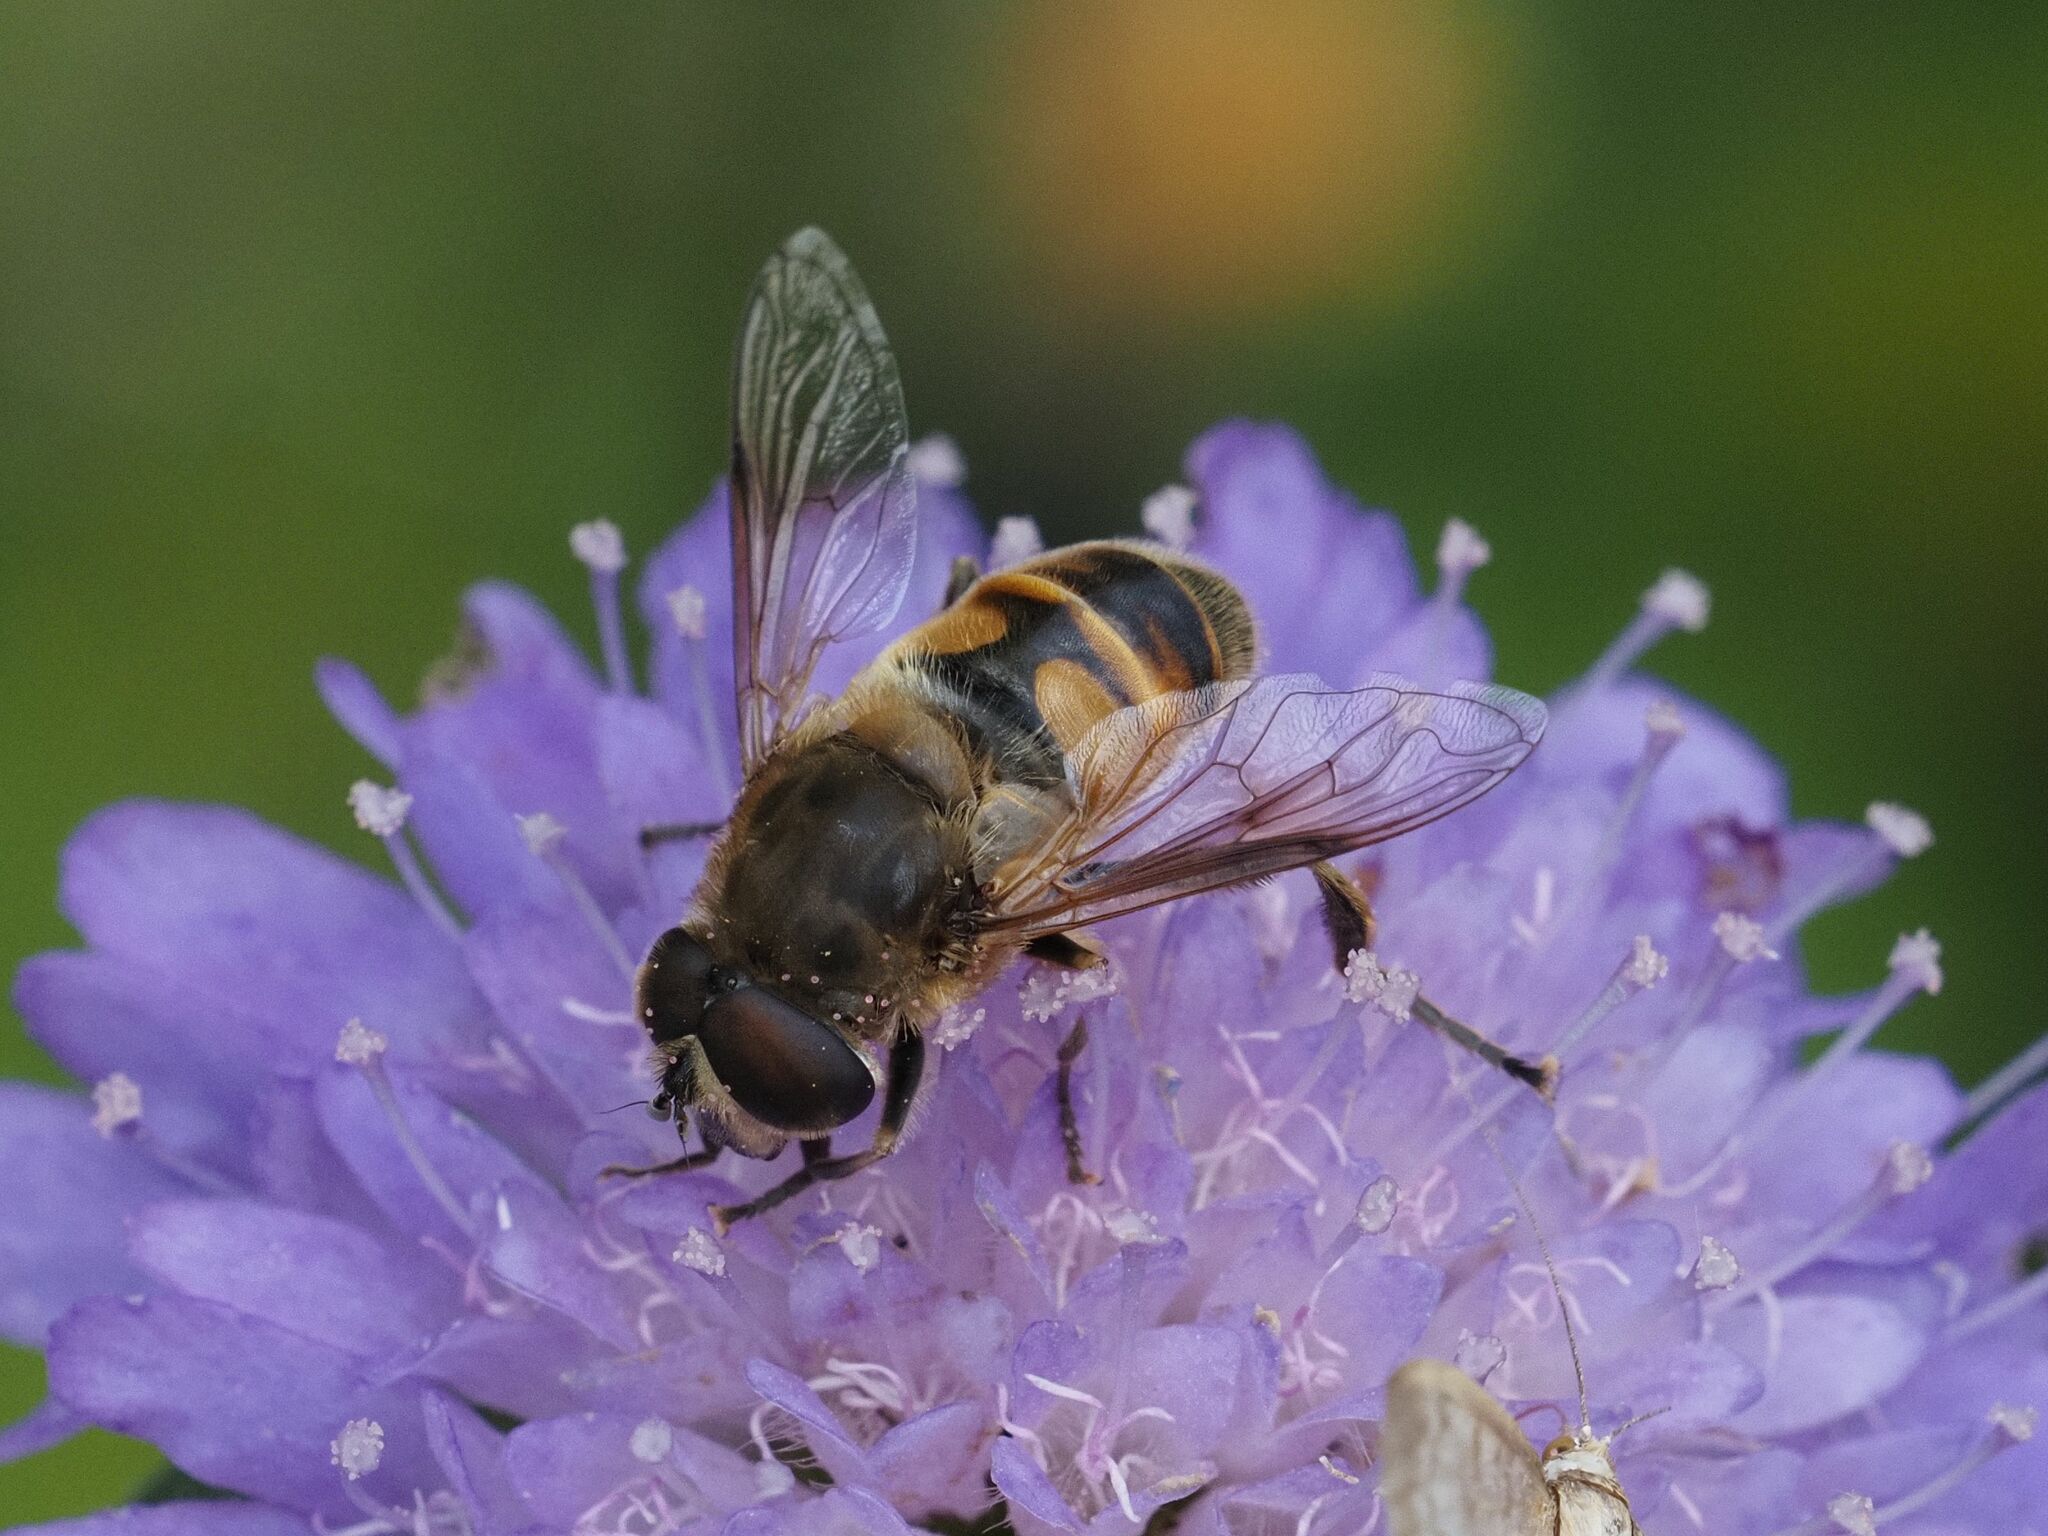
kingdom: Animalia
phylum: Arthropoda
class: Insecta
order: Diptera
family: Syrphidae
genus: Eristalis
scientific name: Eristalis tenax
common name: Drone fly
